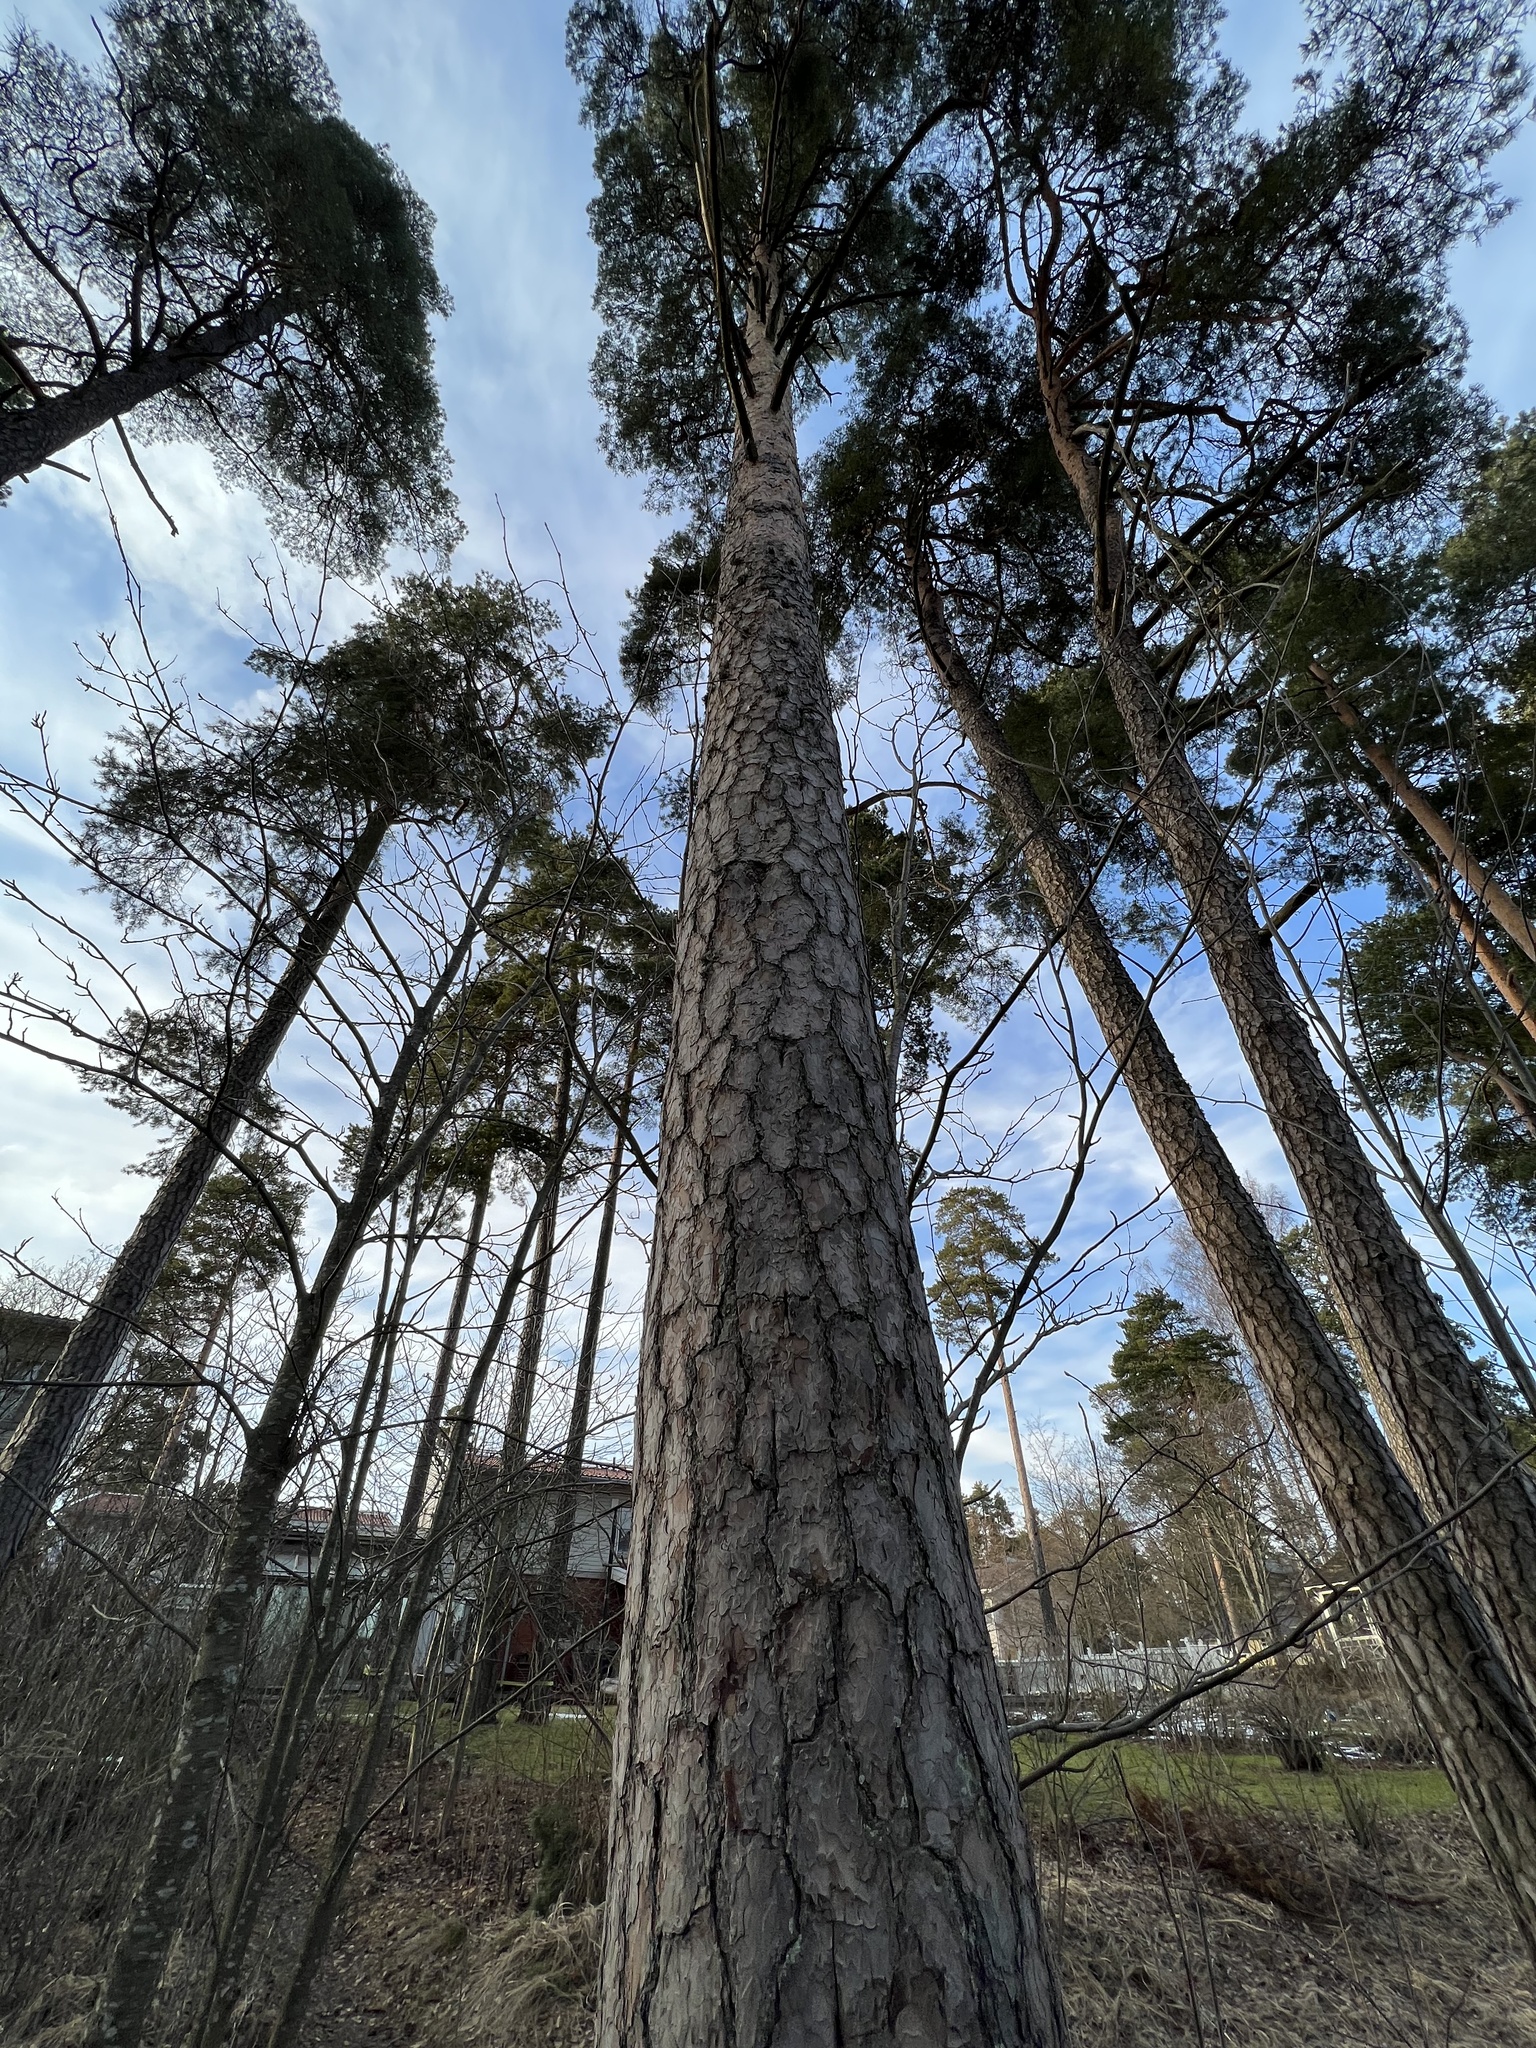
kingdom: Plantae
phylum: Tracheophyta
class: Pinopsida
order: Pinales
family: Pinaceae
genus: Pinus
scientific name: Pinus sylvestris
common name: Scots pine
